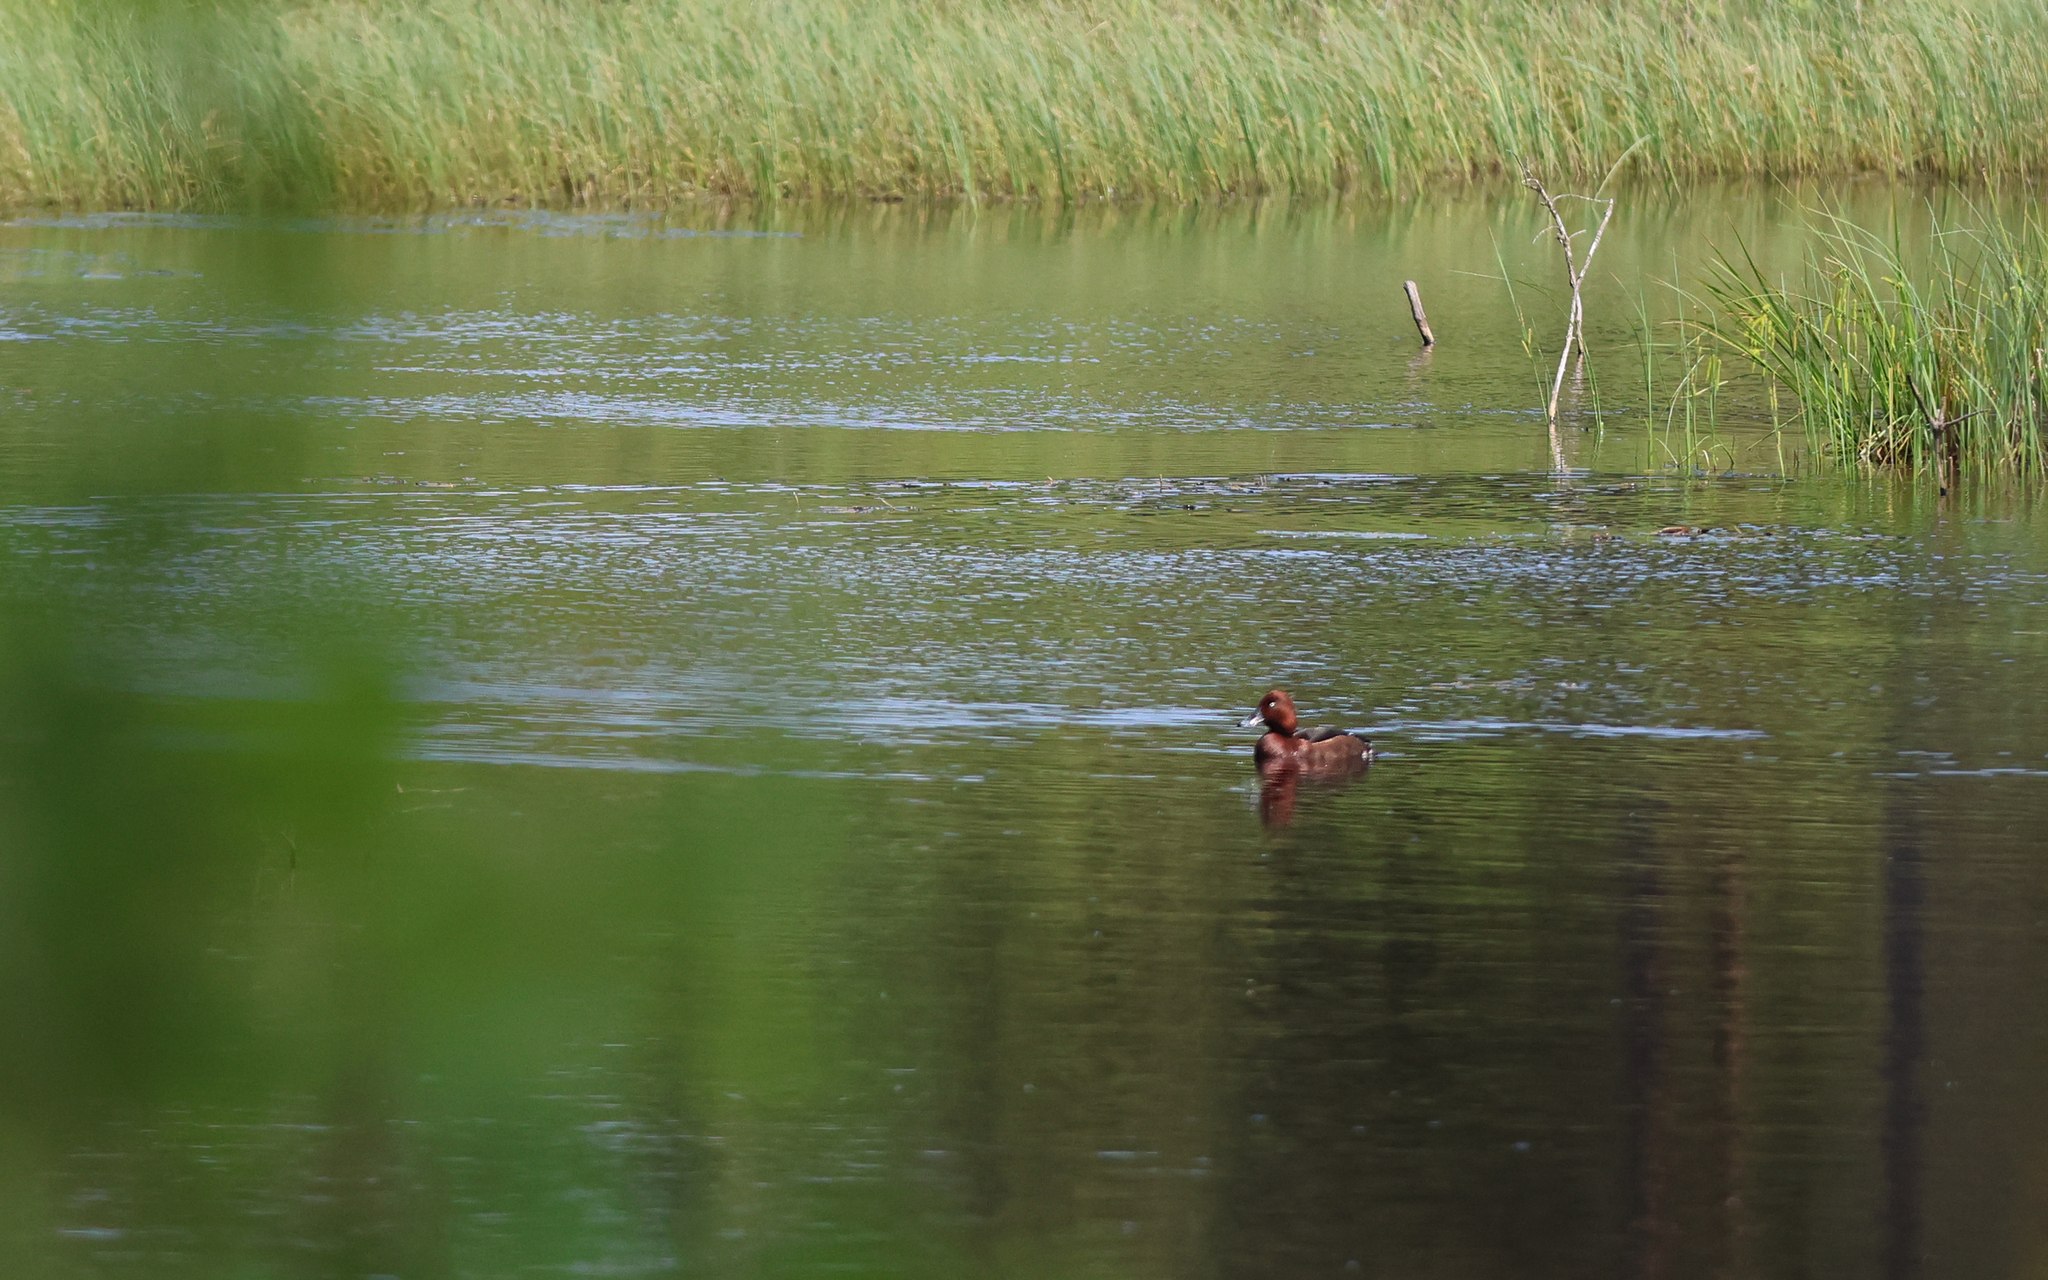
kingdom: Animalia
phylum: Chordata
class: Aves
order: Anseriformes
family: Anatidae
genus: Aythya
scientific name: Aythya nyroca
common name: Ferruginous duck
